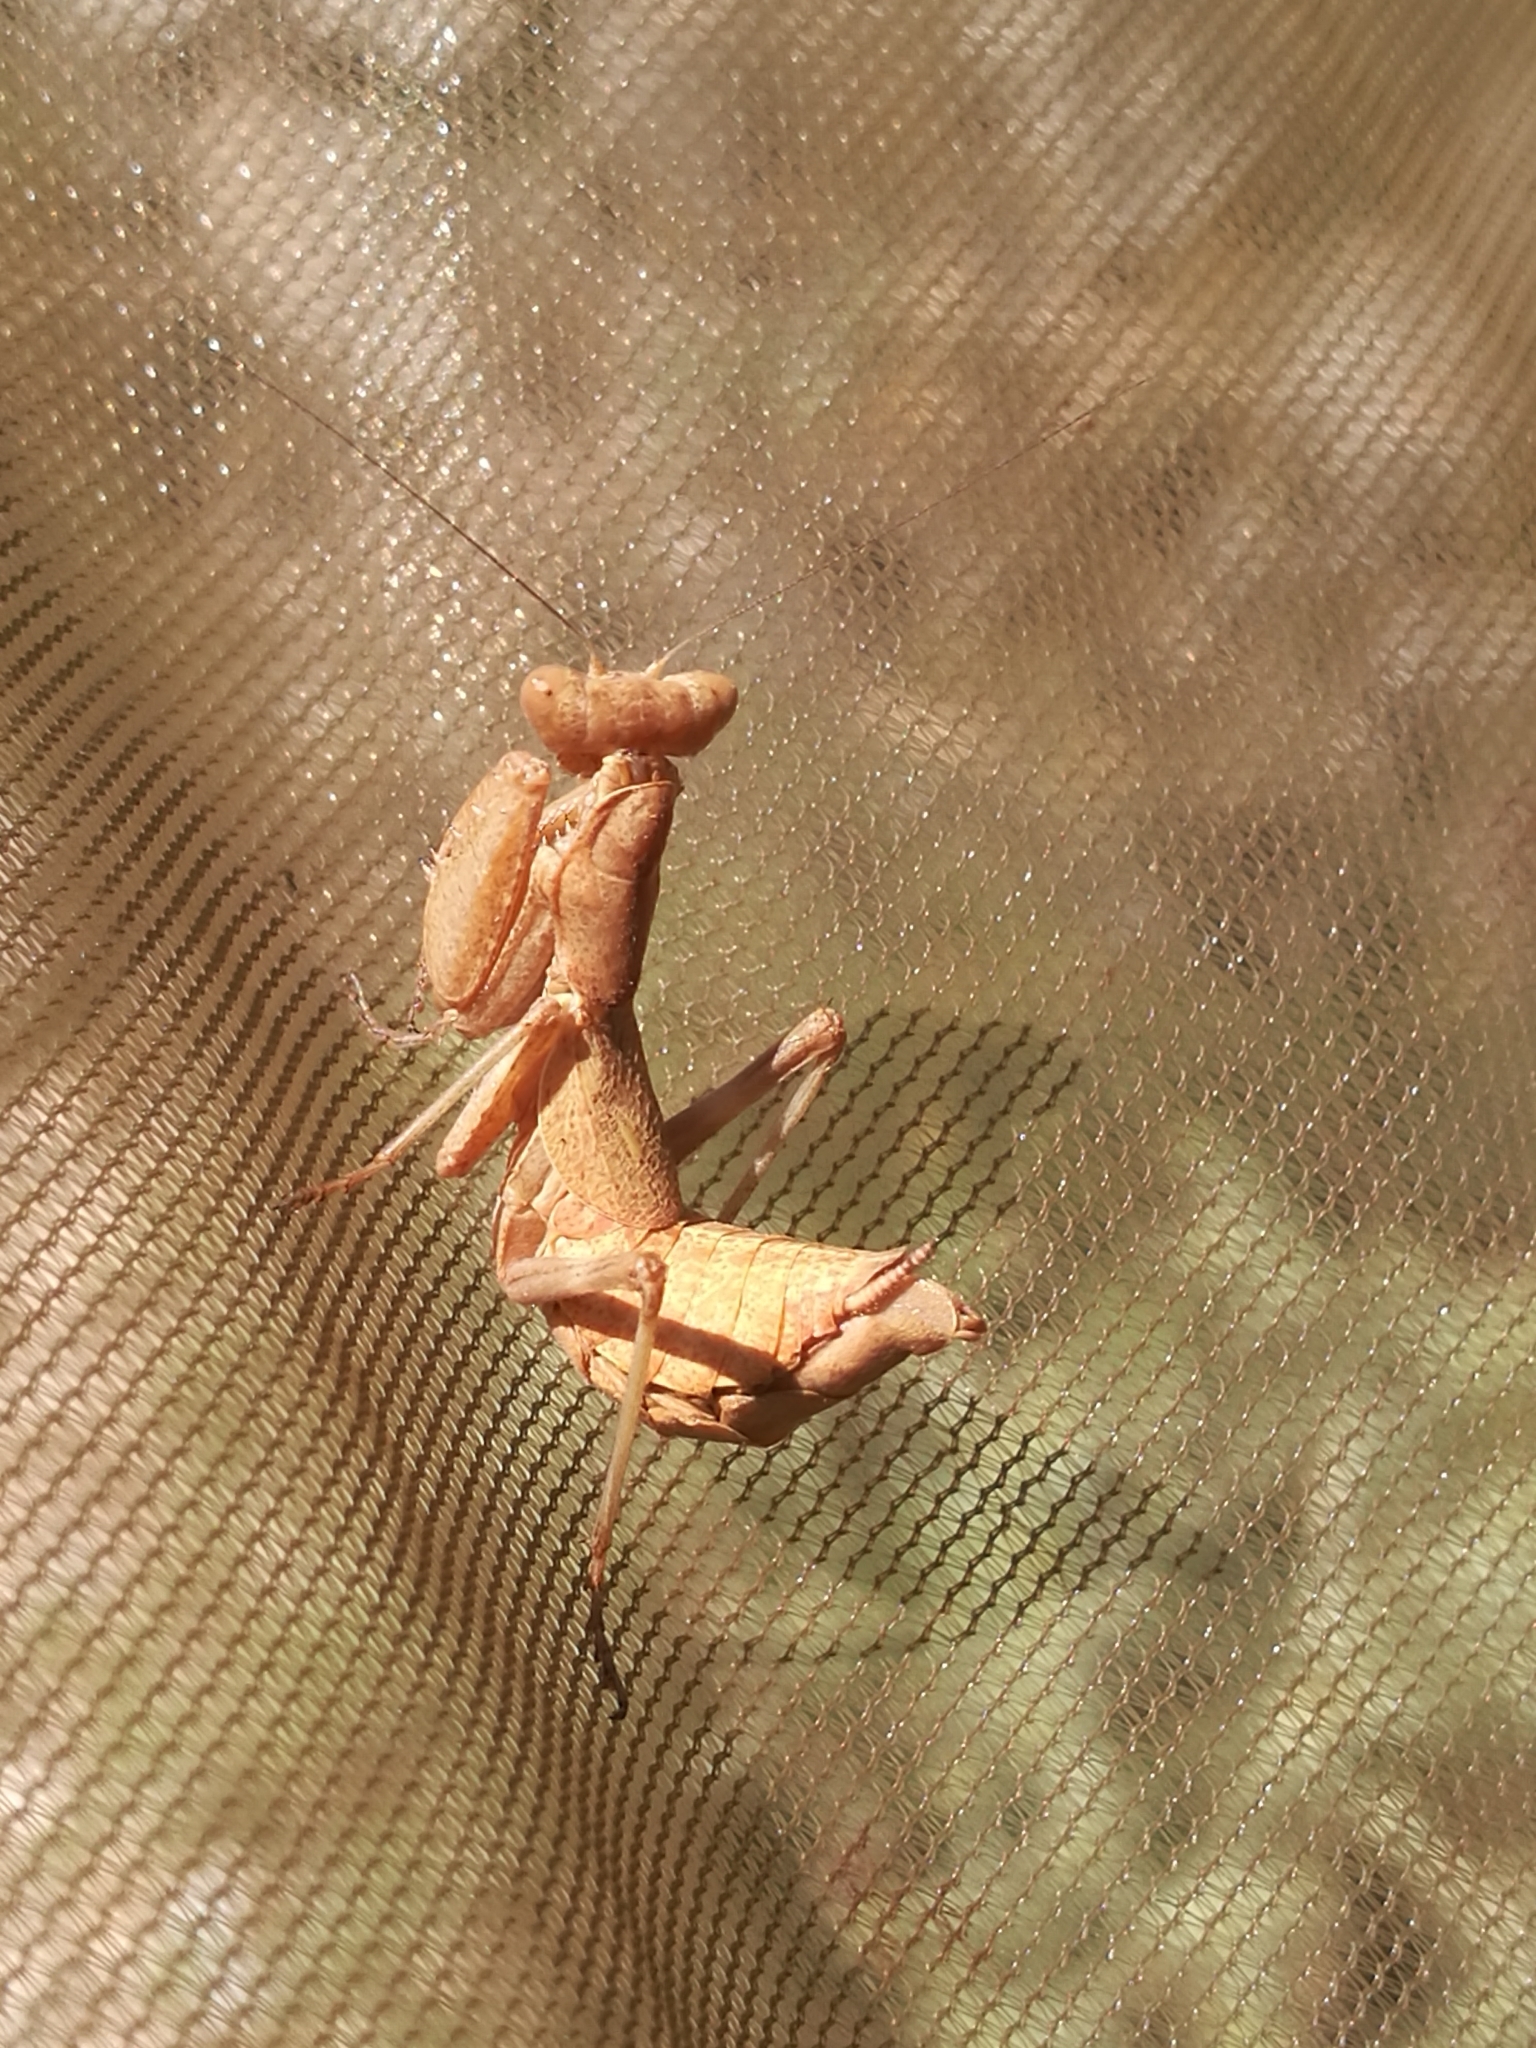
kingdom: Animalia
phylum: Arthropoda
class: Insecta
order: Mantodea
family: Amelidae
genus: Ameles
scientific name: Ameles spallanzania
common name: European dwarf mantis
